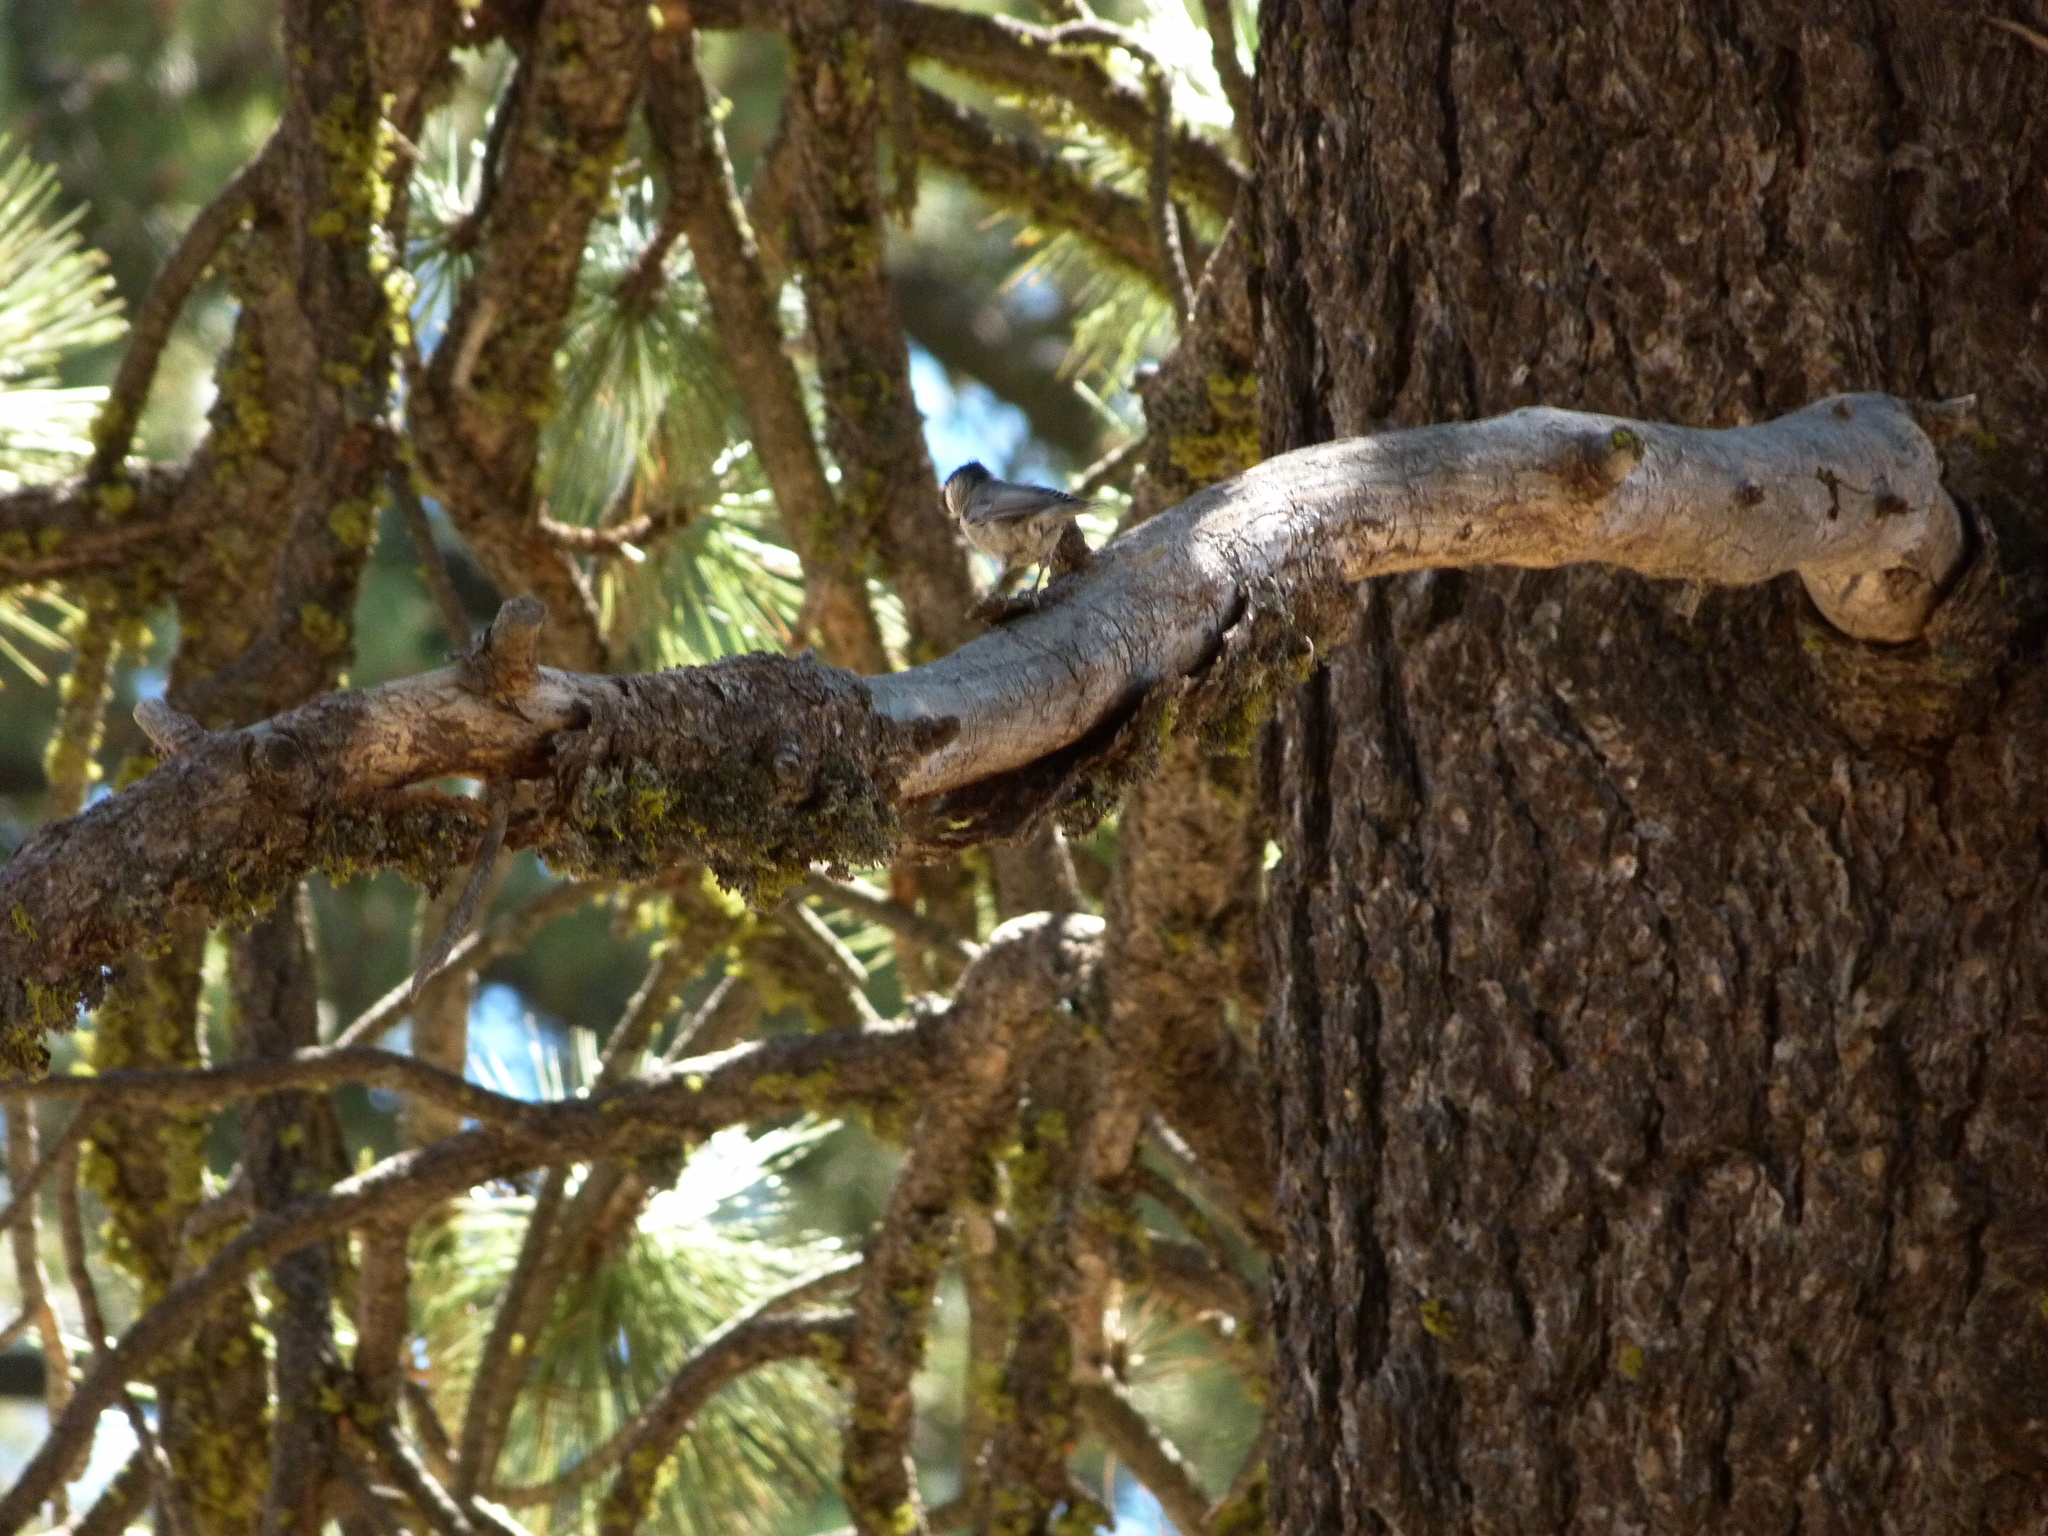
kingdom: Animalia
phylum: Chordata
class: Aves
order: Passeriformes
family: Paridae
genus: Poecile
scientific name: Poecile gambeli
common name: Mountain chickadee
